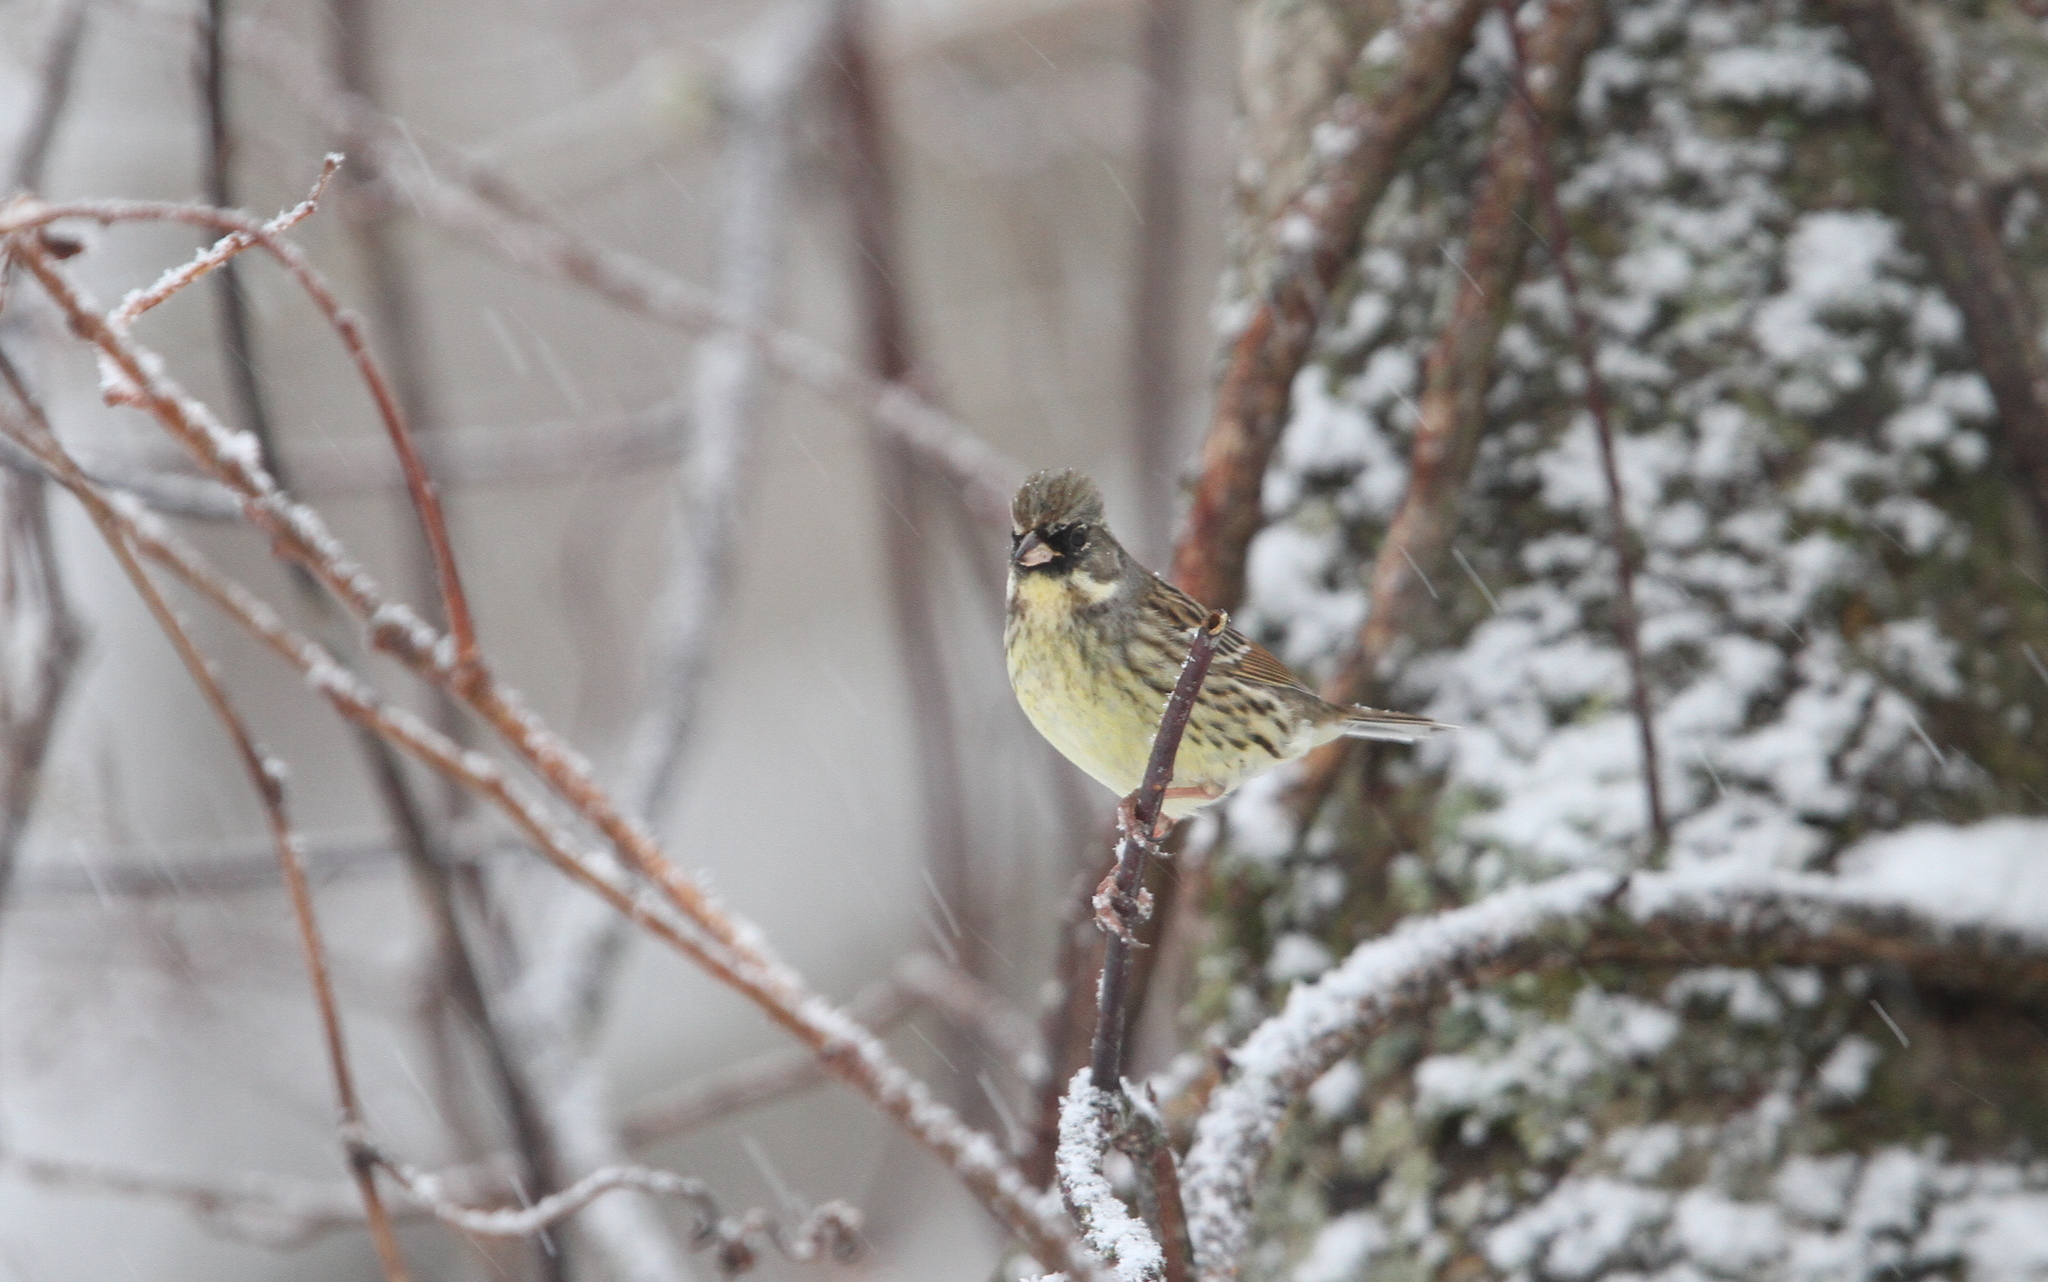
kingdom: Animalia
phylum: Chordata
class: Aves
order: Passeriformes
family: Emberizidae
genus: Emberiza
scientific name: Emberiza personata
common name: Masked bunting
